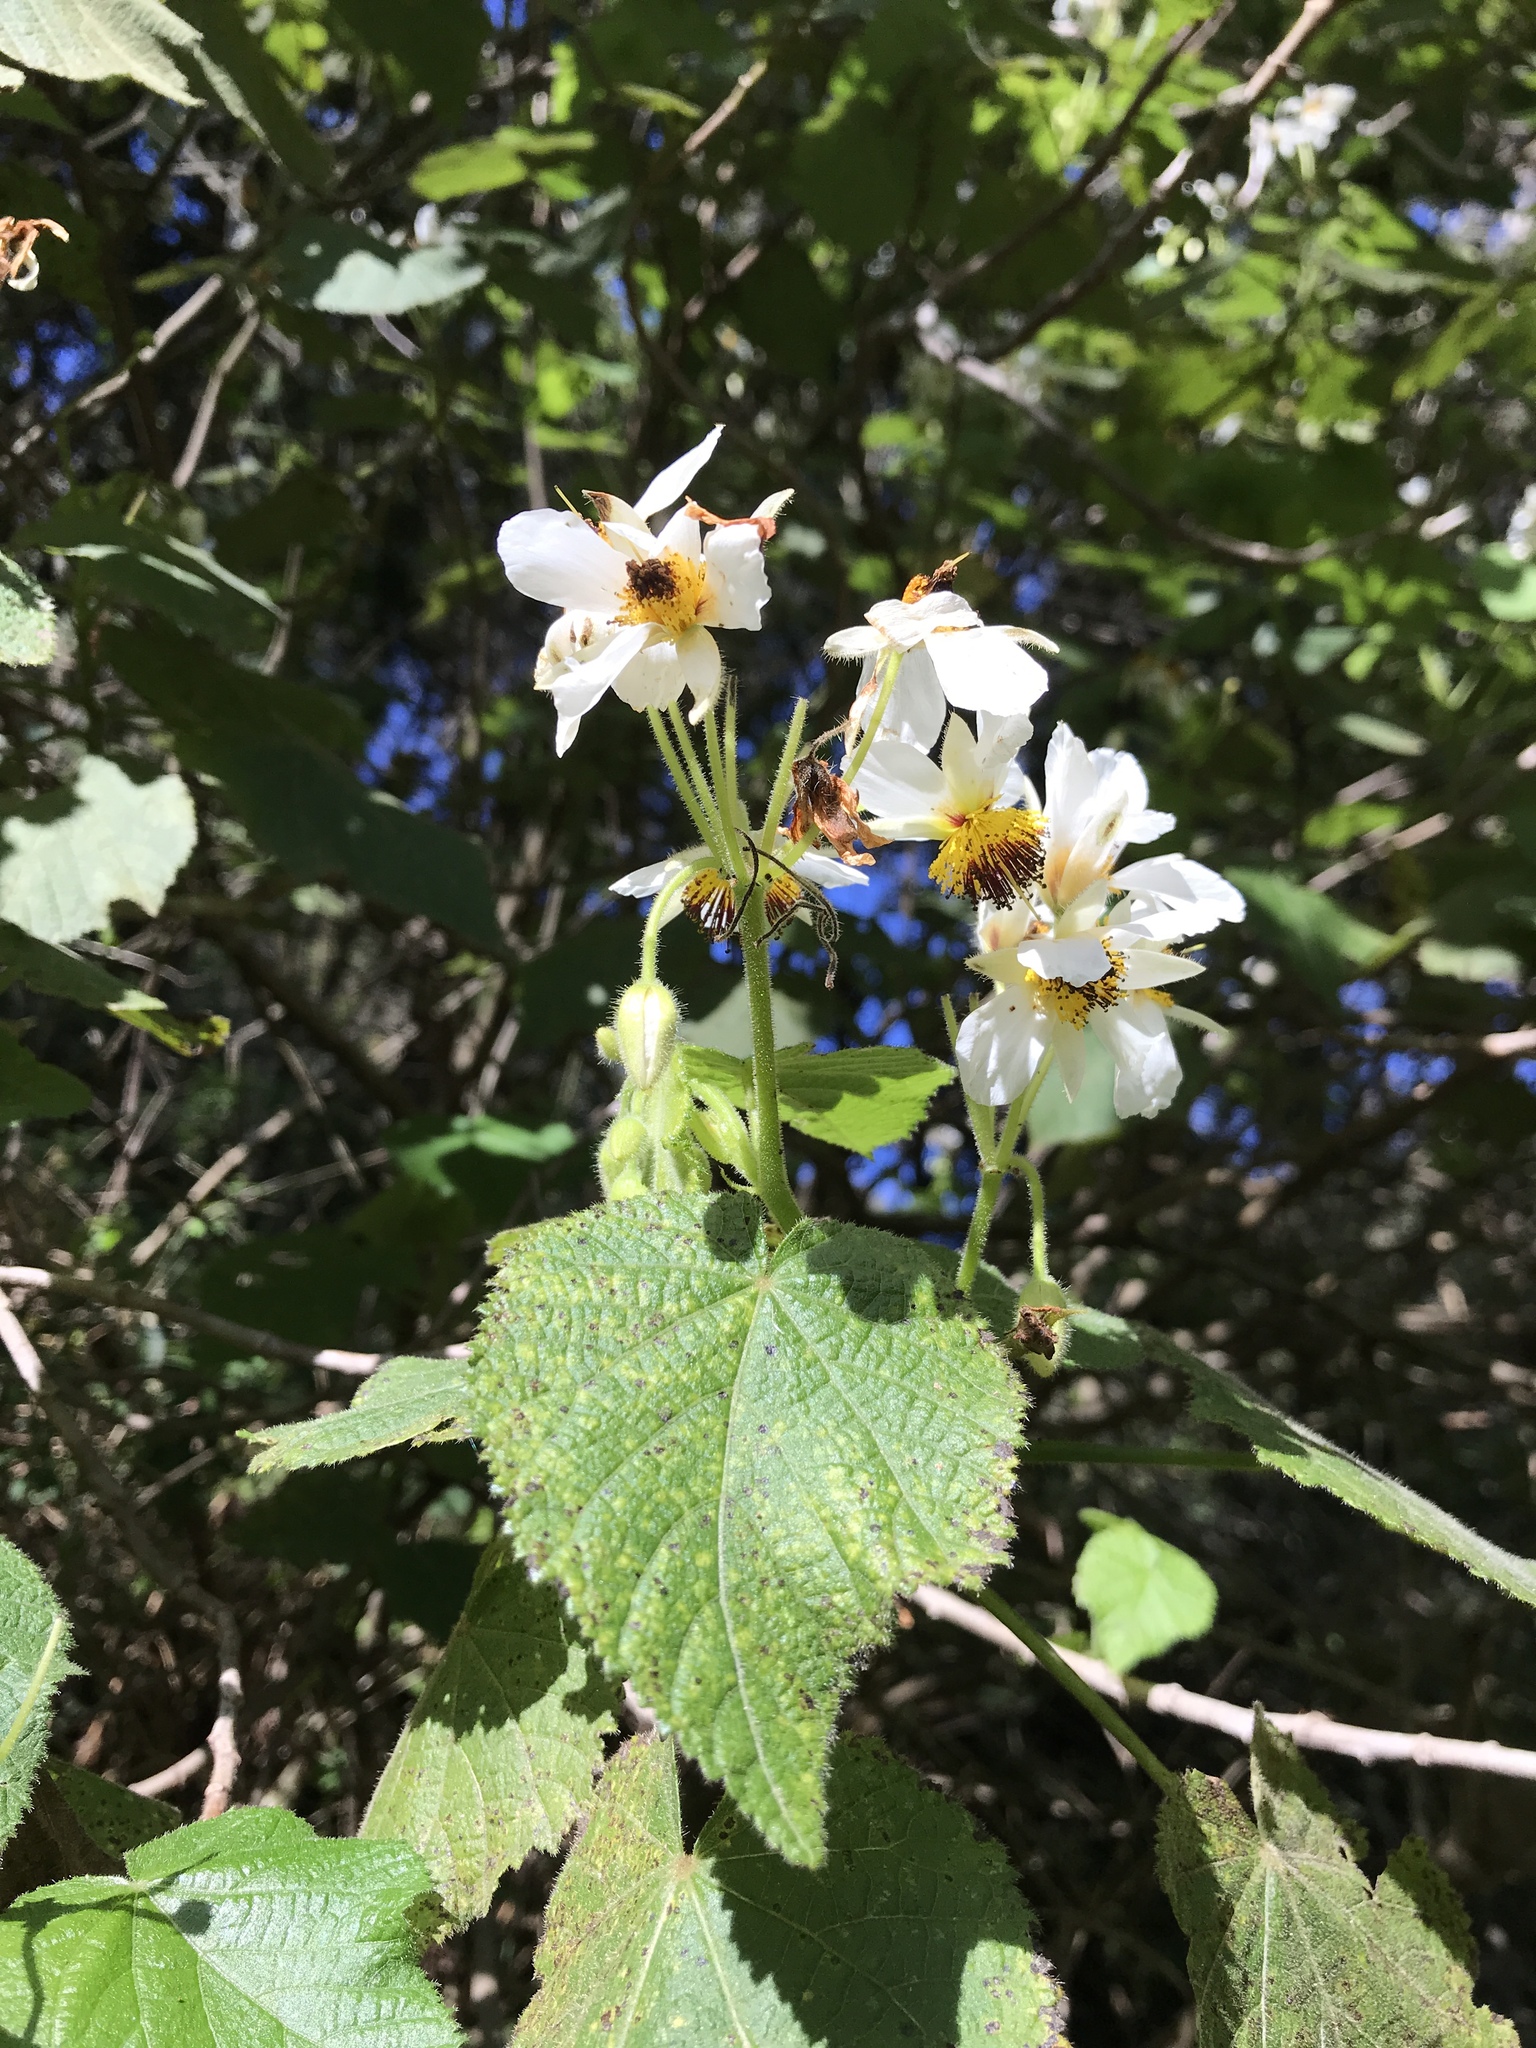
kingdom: Plantae
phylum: Tracheophyta
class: Magnoliopsida
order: Malvales
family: Malvaceae
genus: Sparrmannia
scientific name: Sparrmannia africana
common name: African-hemp
